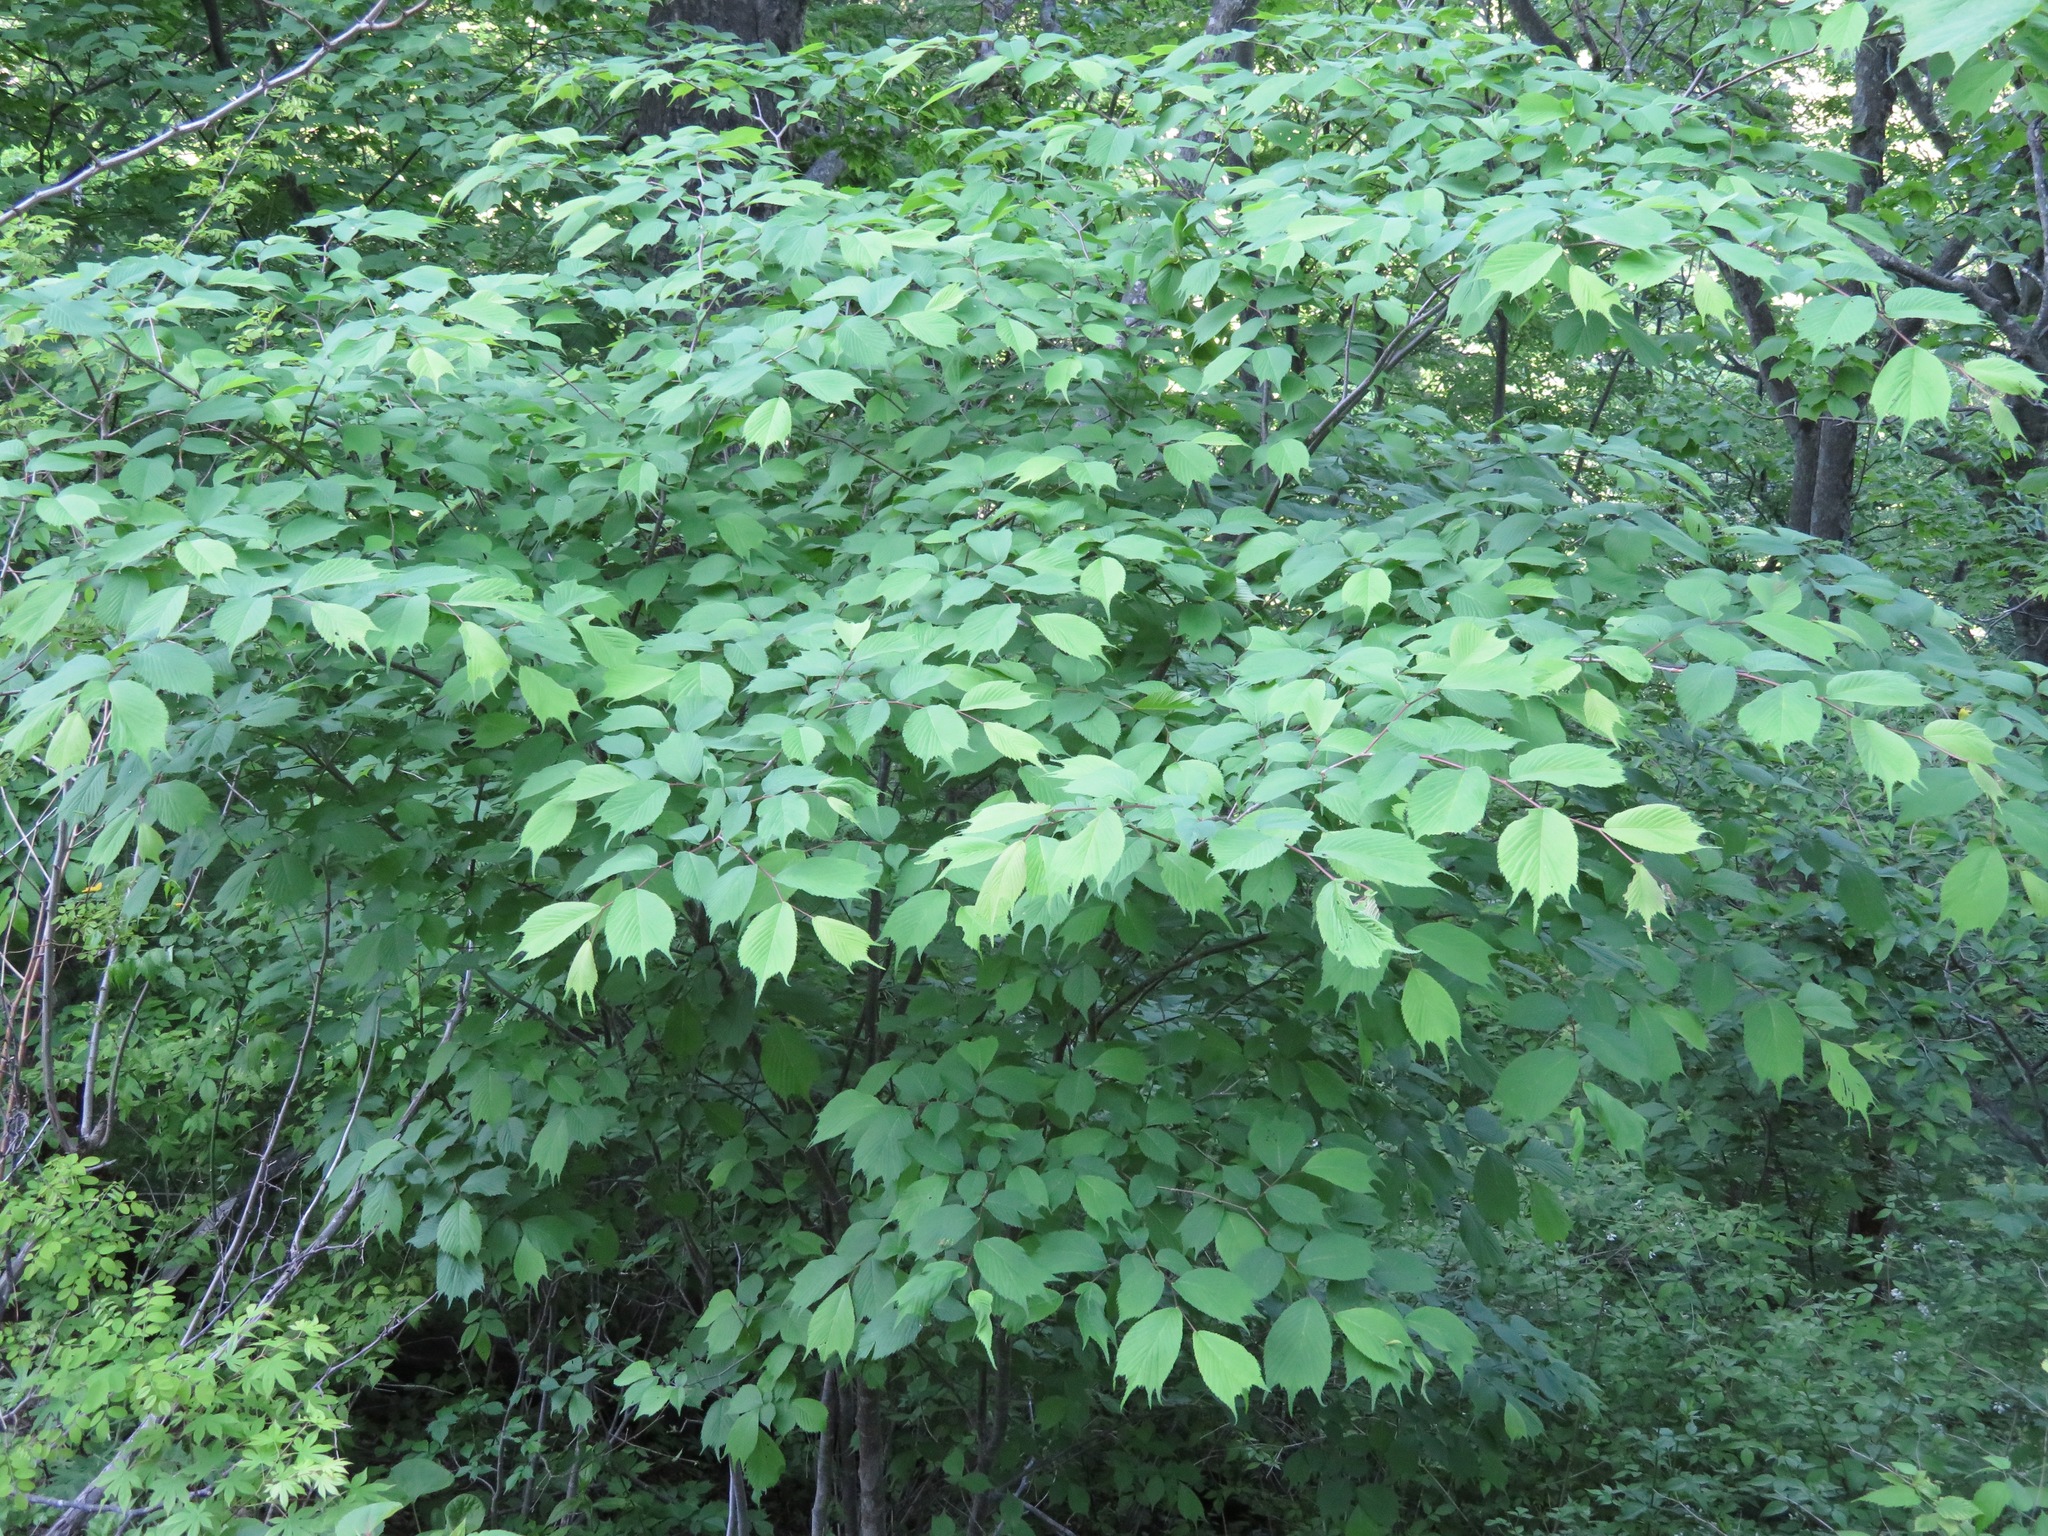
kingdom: Plantae
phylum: Tracheophyta
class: Magnoliopsida
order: Rosales
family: Ulmaceae
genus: Ulmus
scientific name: Ulmus laciniata
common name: Japanese elm
